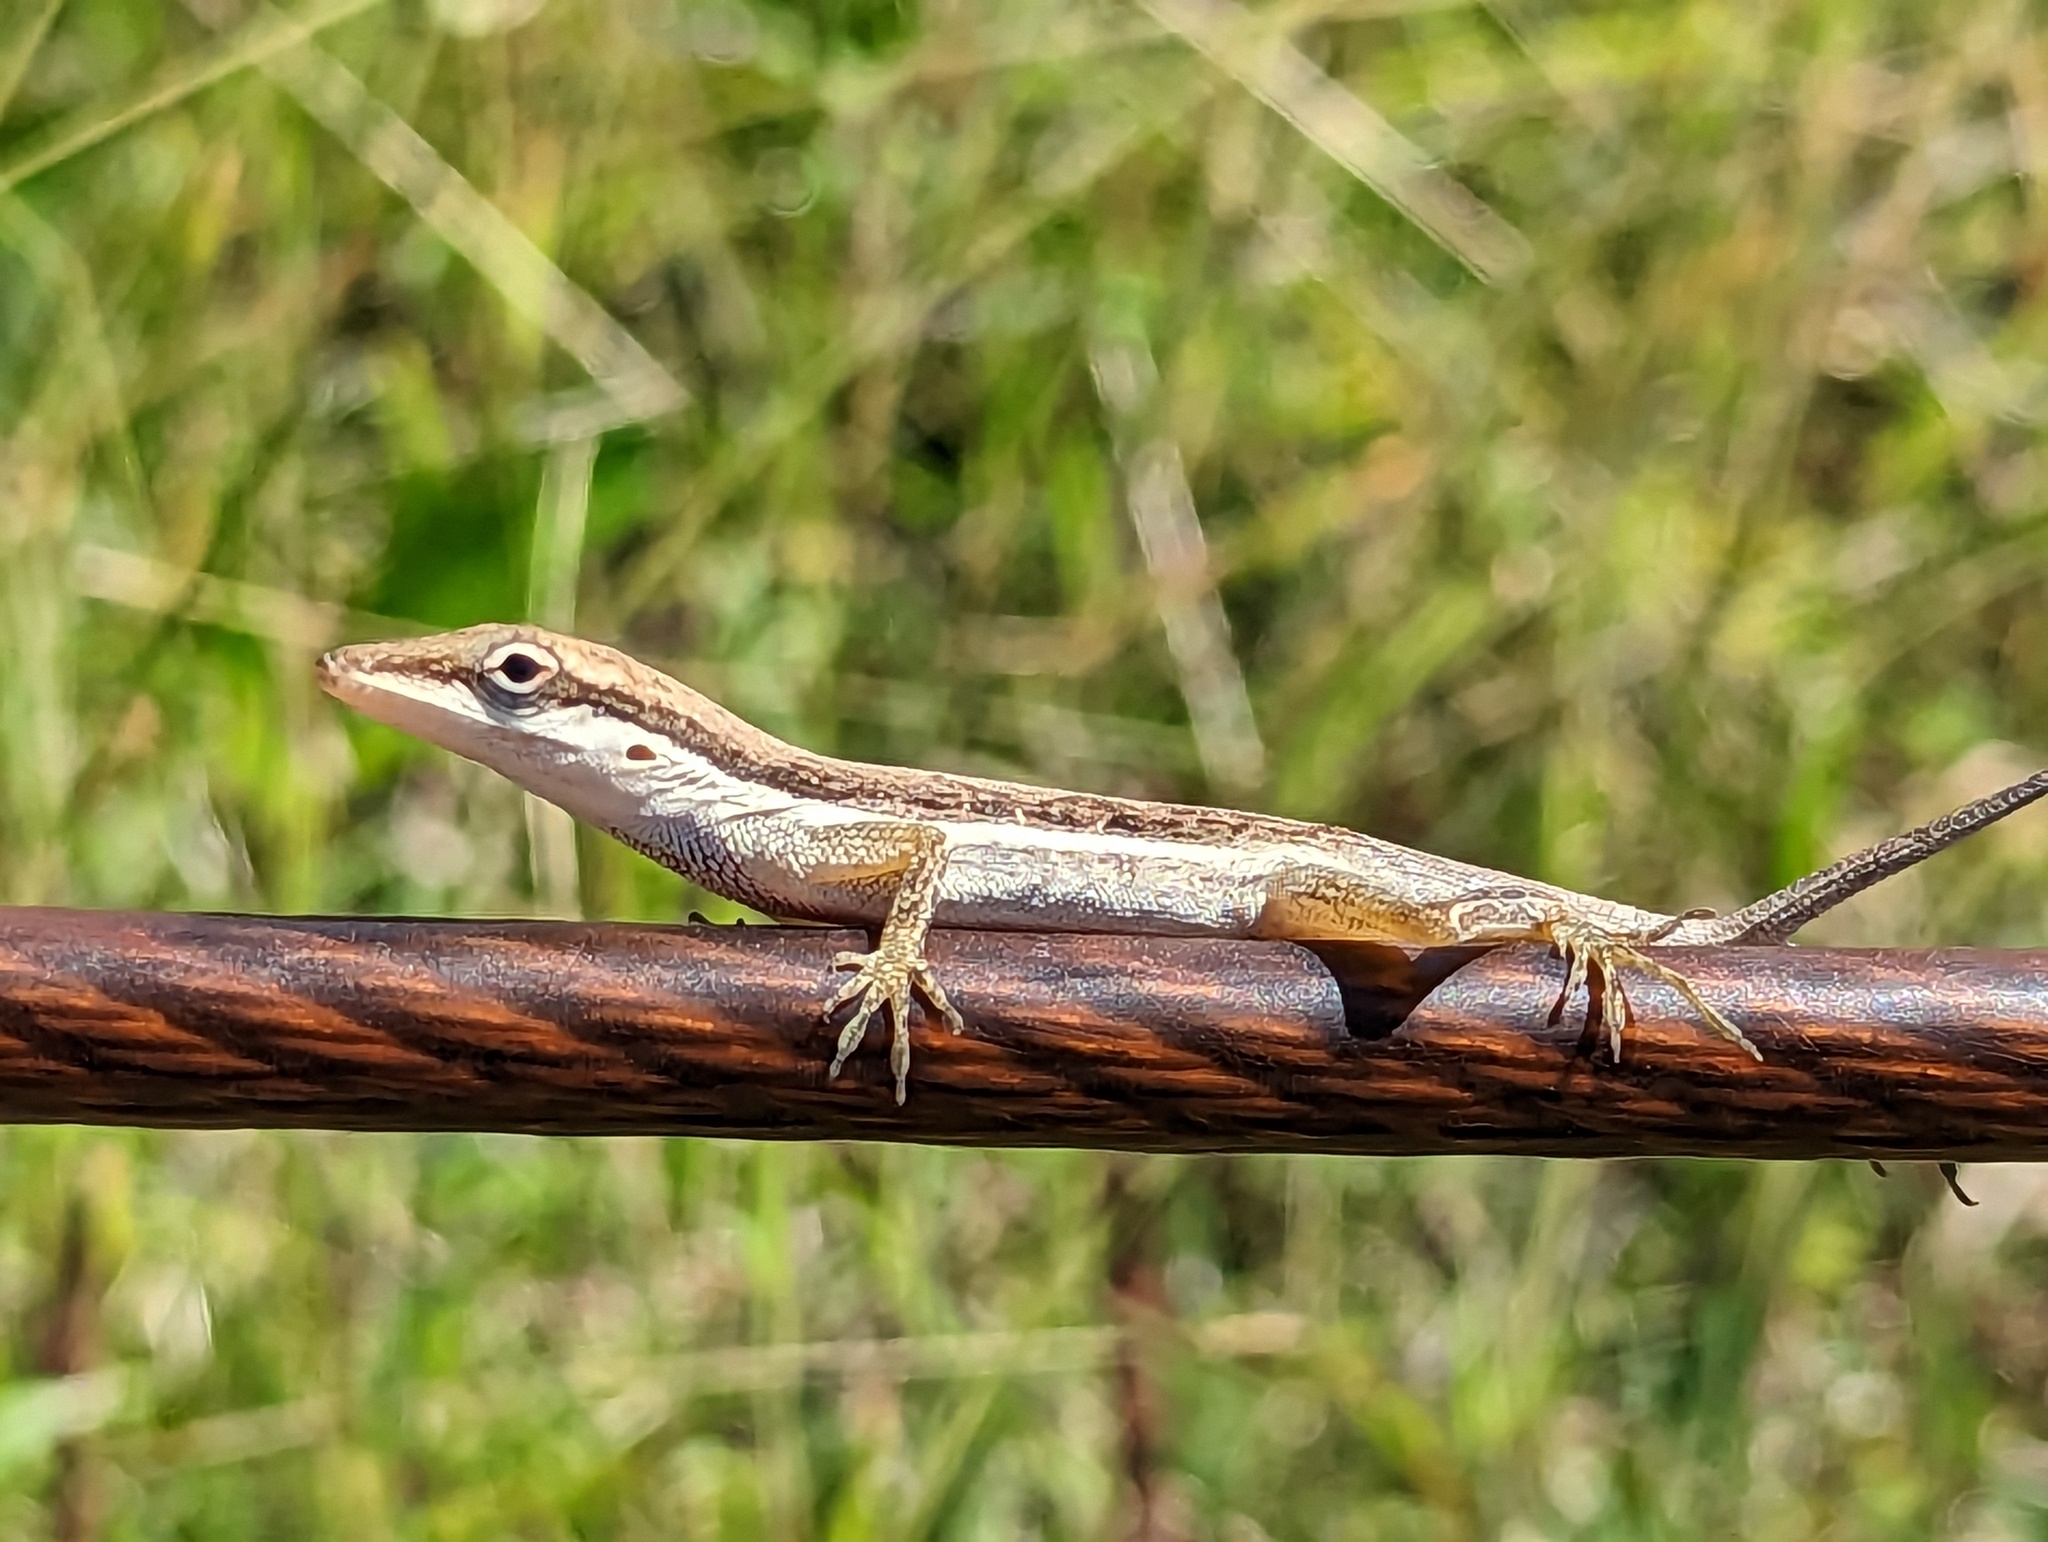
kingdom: Animalia
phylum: Chordata
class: Squamata
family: Dactyloidae
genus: Anolis
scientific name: Anolis pulchellus
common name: Puerto rican anole
